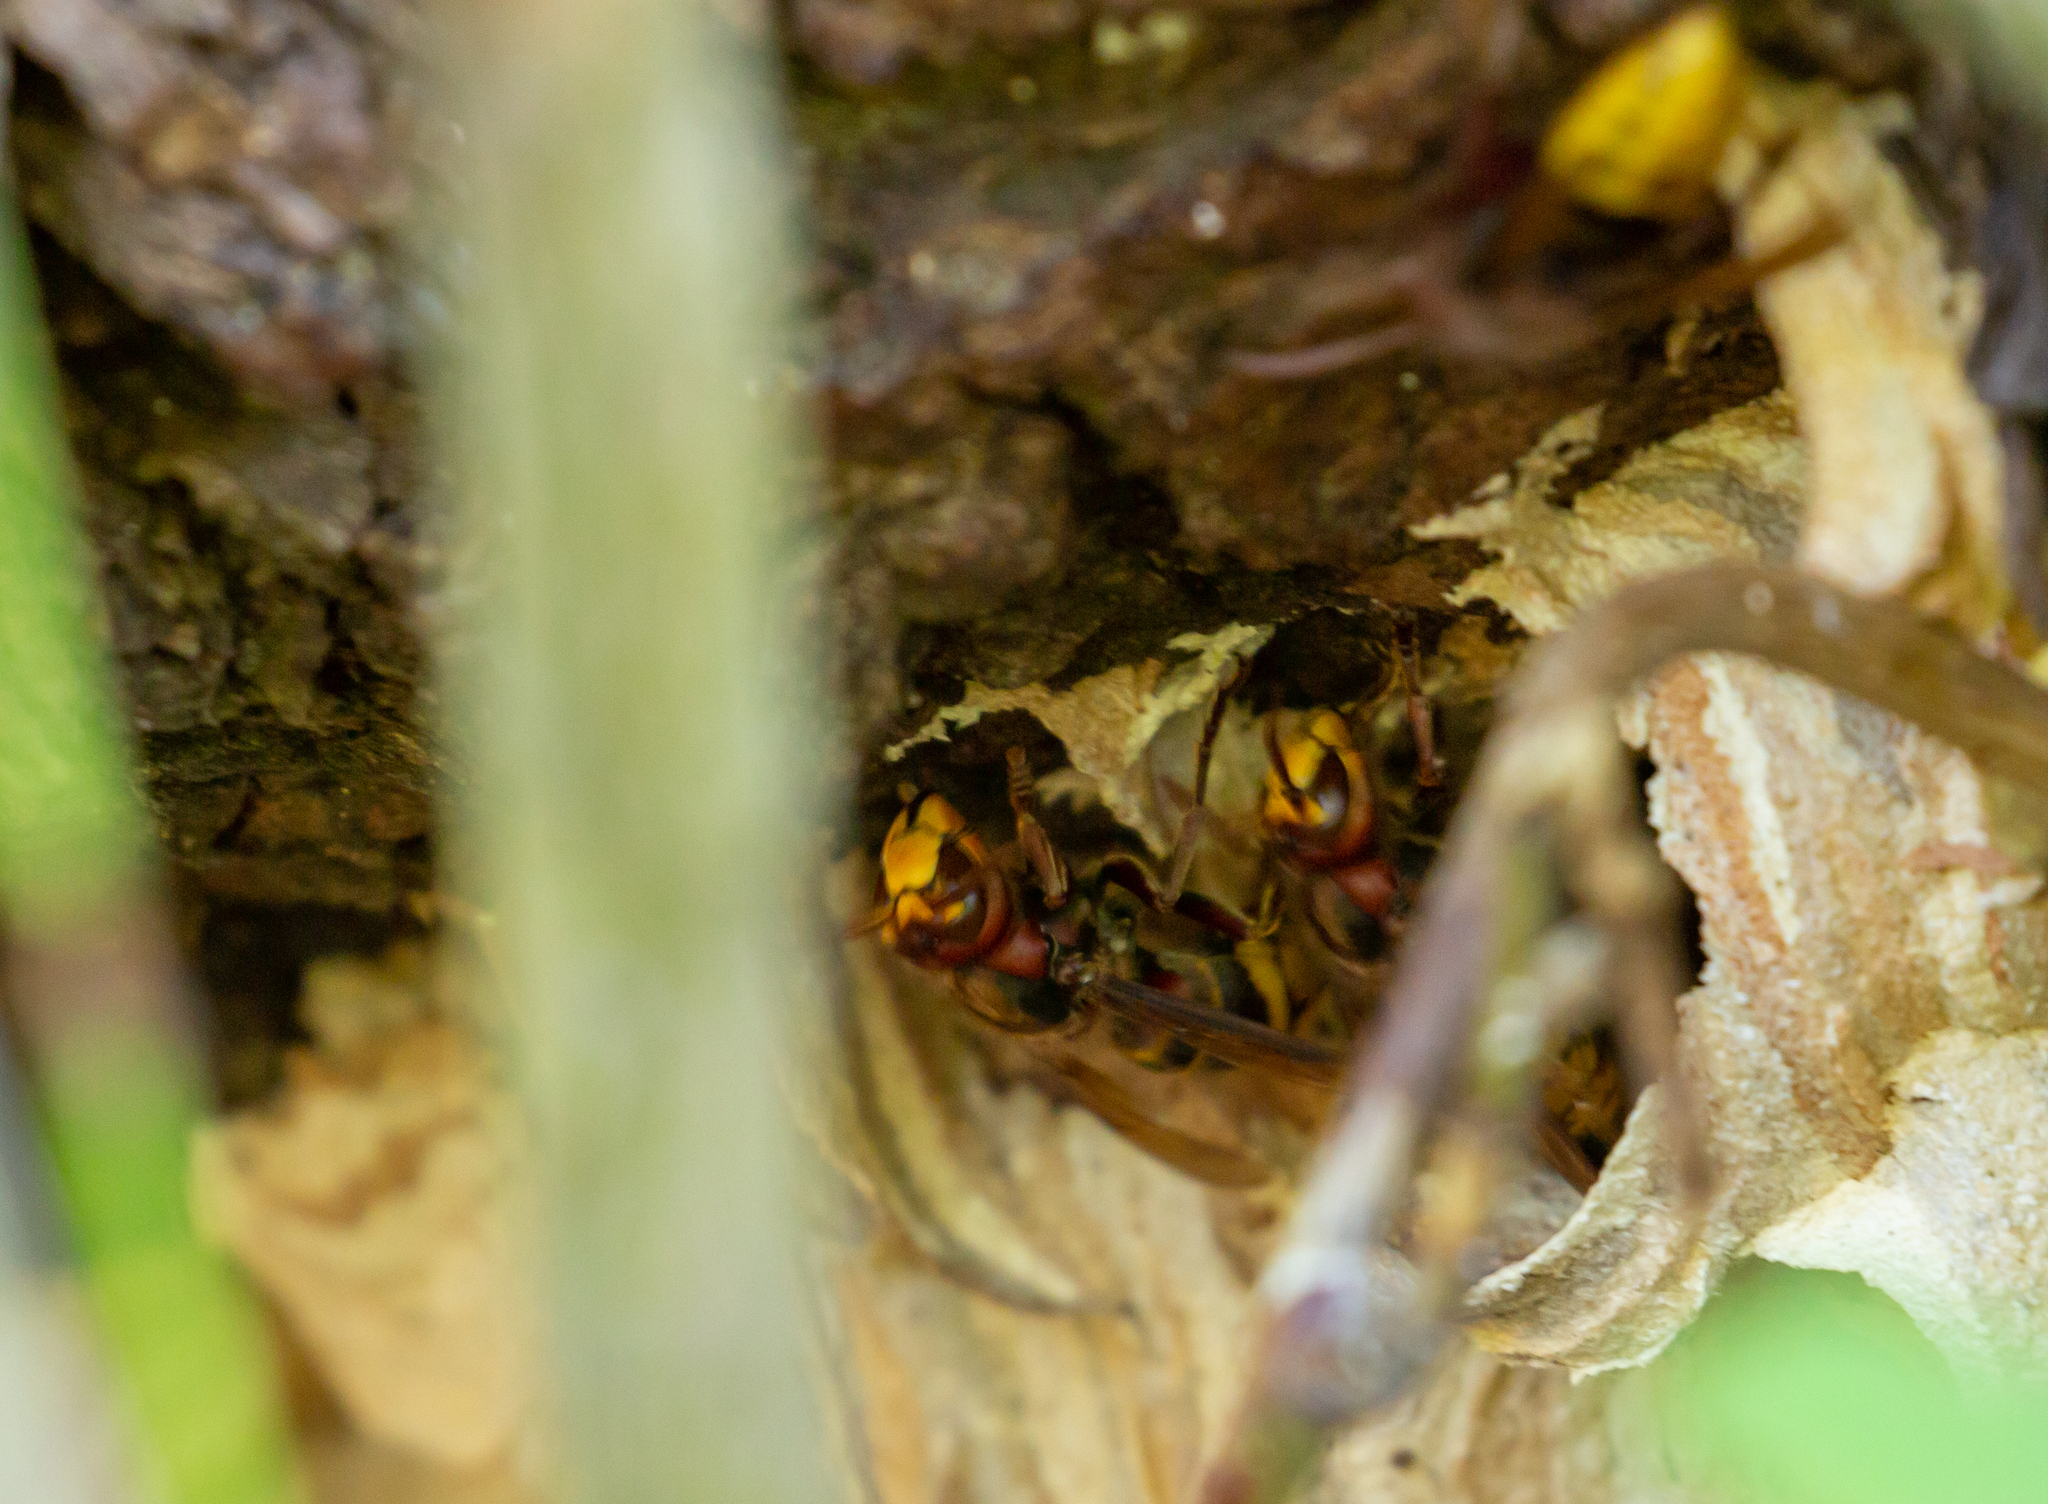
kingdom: Animalia
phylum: Arthropoda
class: Insecta
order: Hymenoptera
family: Vespidae
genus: Vespa
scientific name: Vespa crabro
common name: Hornet
